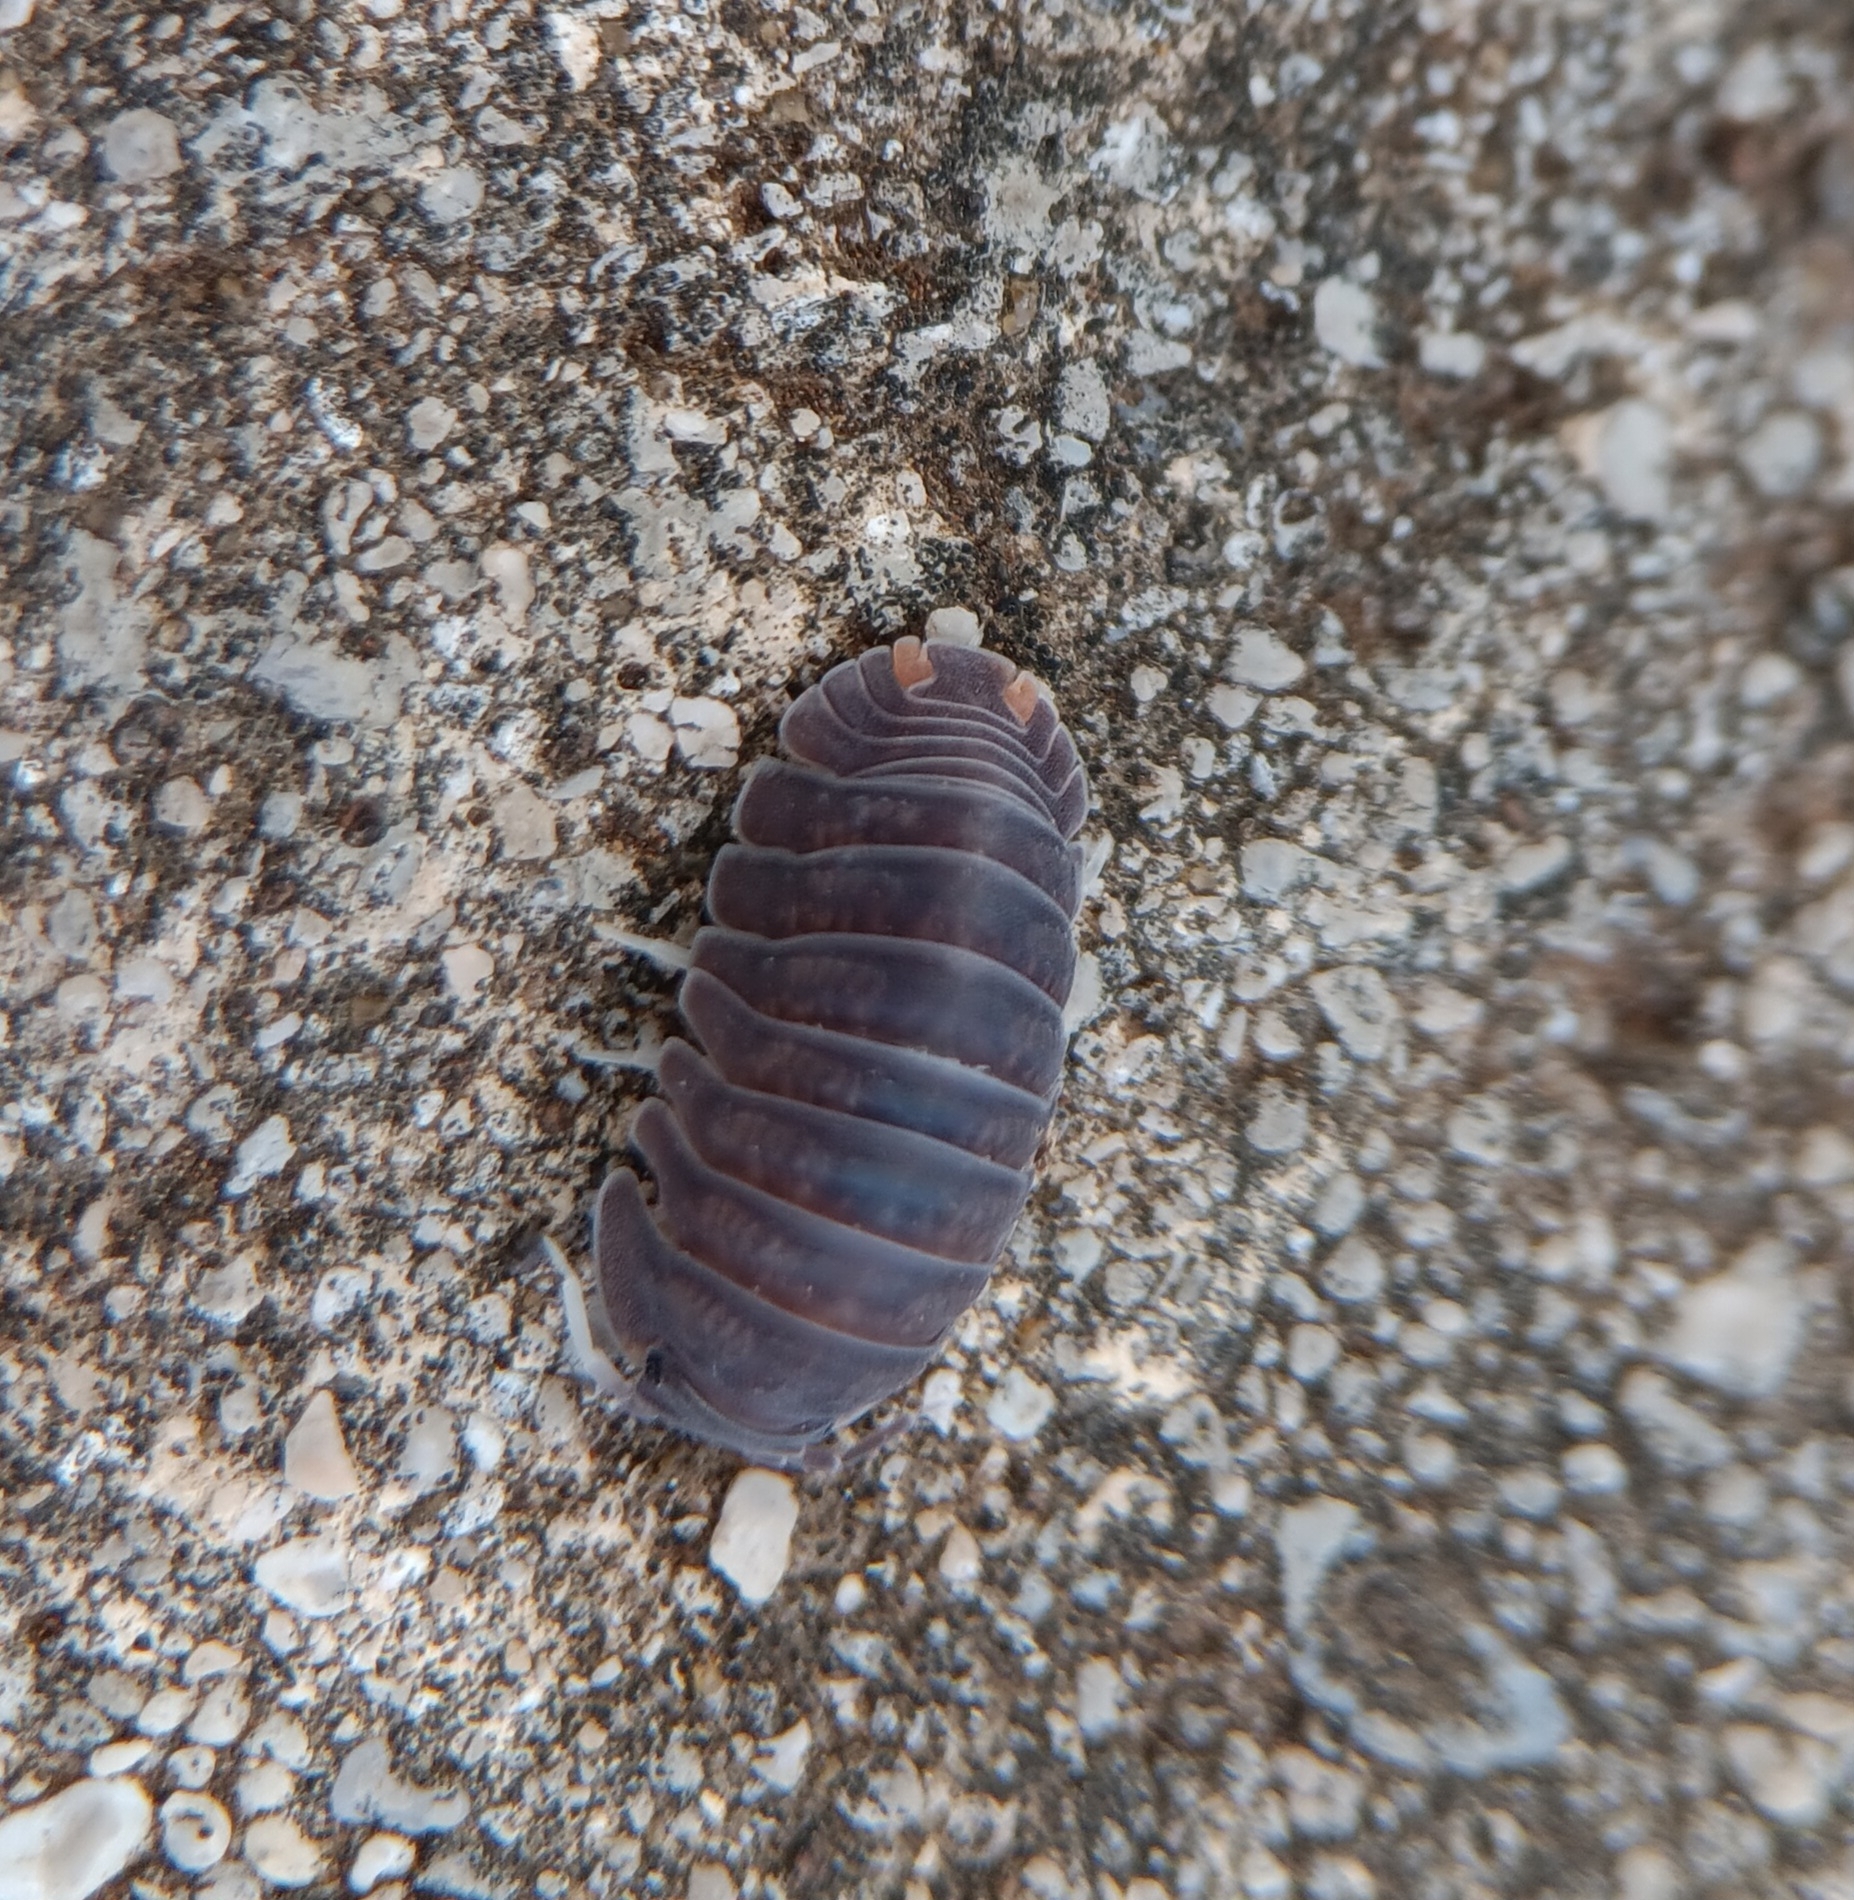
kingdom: Animalia
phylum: Arthropoda
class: Malacostraca
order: Isopoda
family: Armadillidae
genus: Cubaris
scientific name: Cubaris murina
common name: Pillbug
